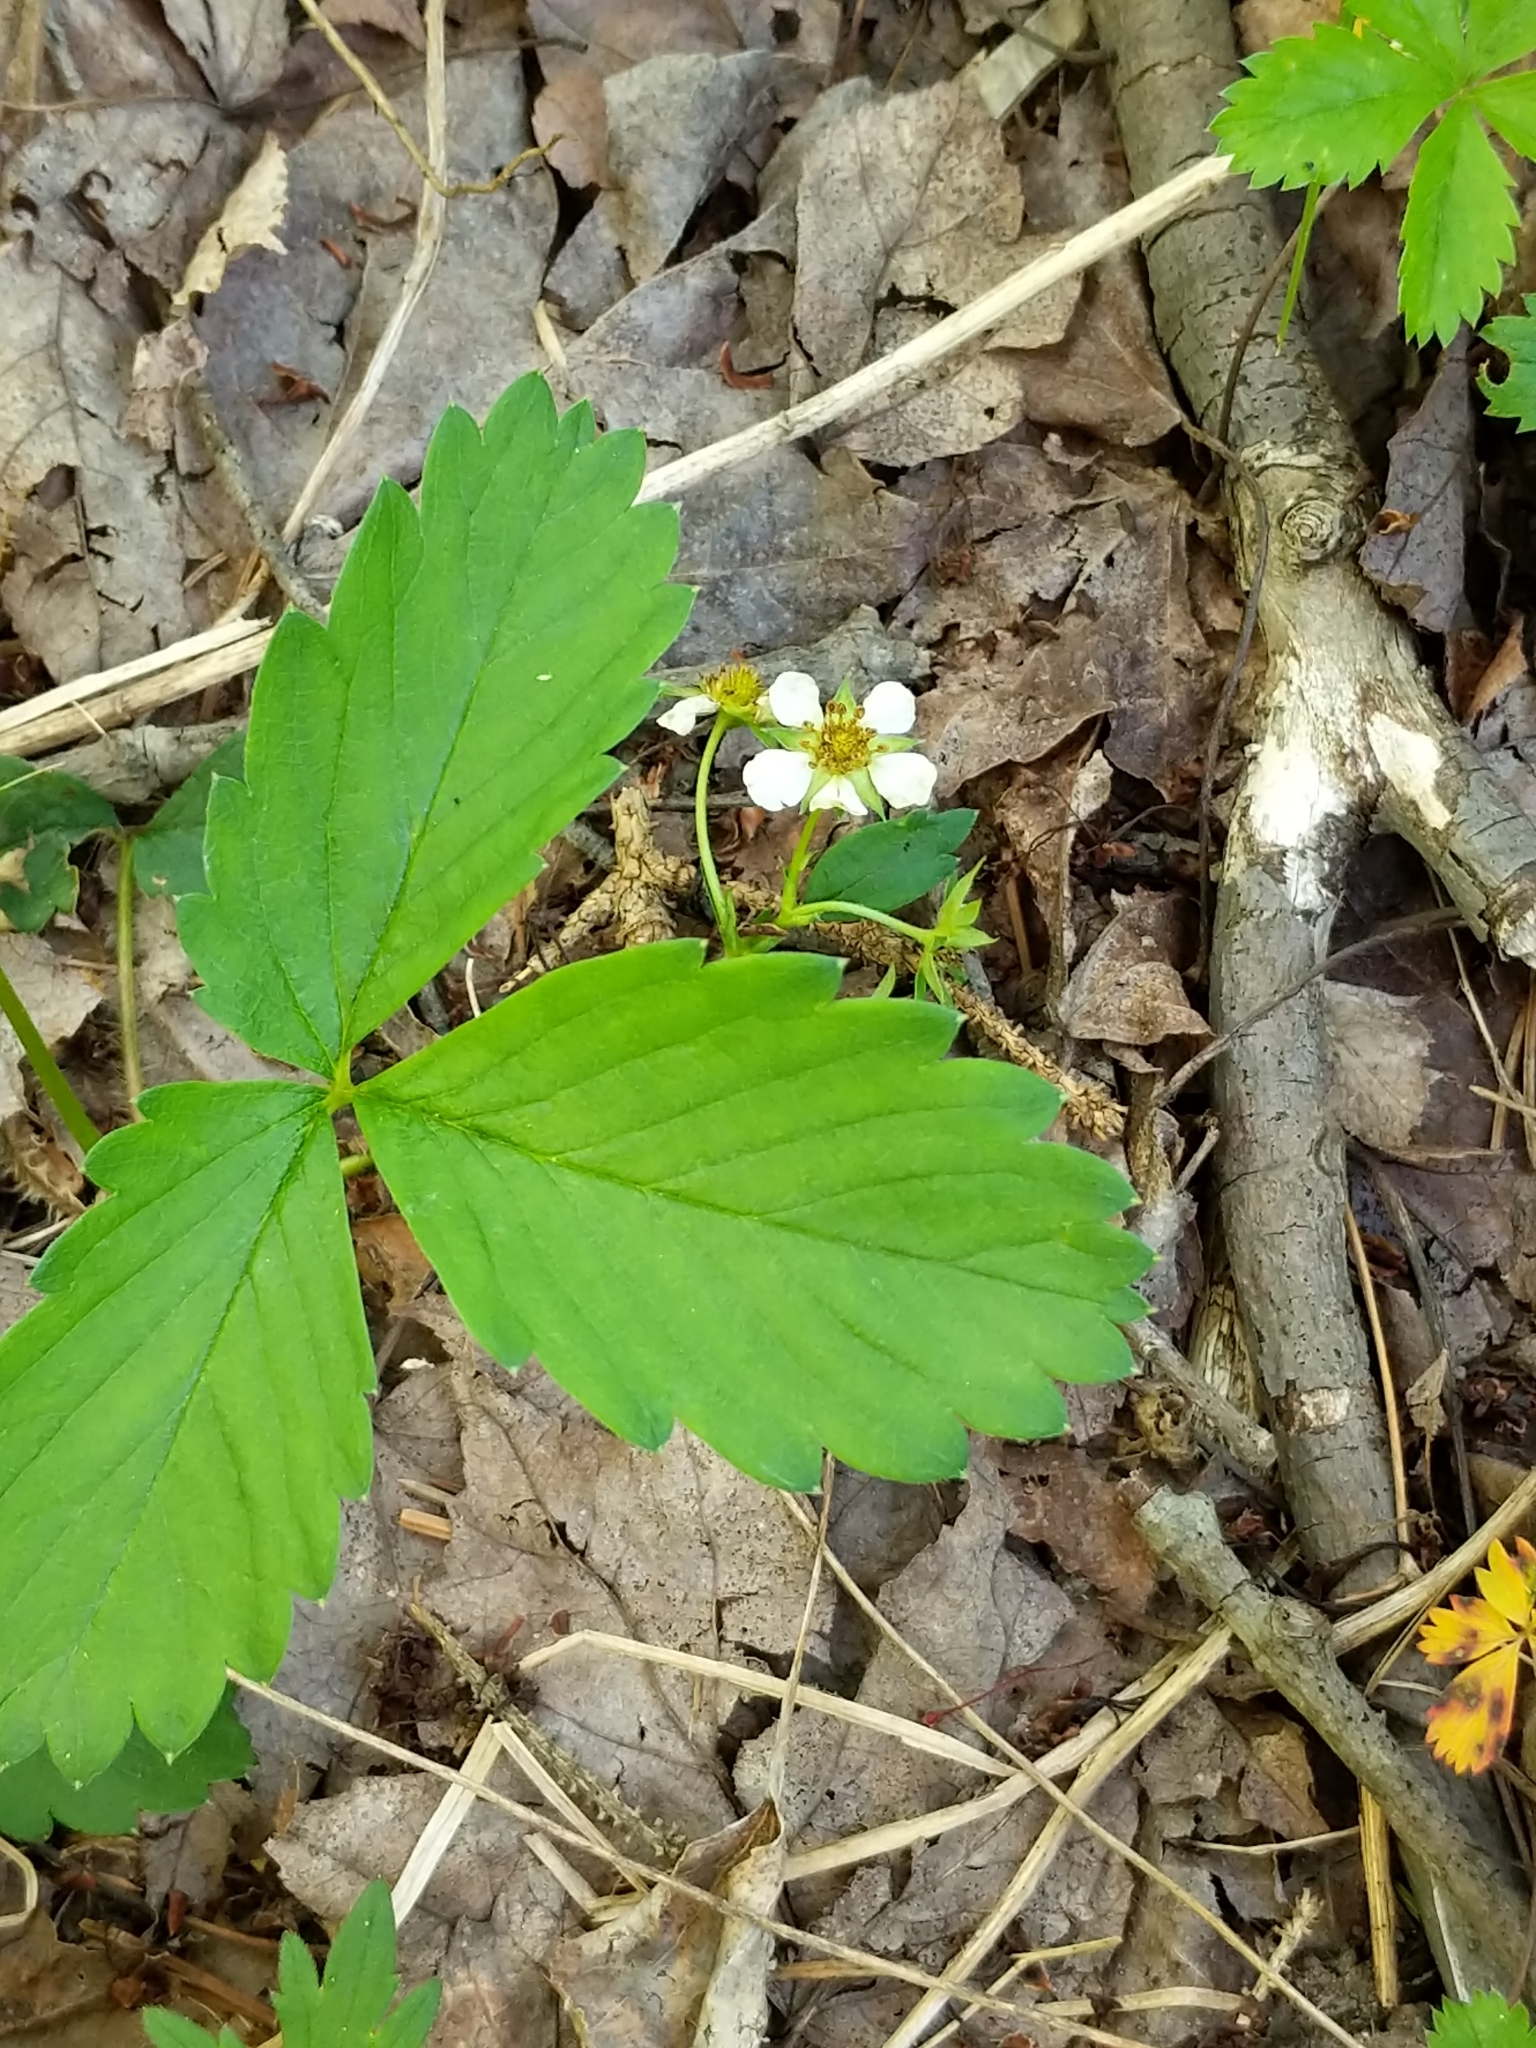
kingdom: Plantae
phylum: Tracheophyta
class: Magnoliopsida
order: Rosales
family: Rosaceae
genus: Fragaria
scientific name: Fragaria virginiana
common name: Thickleaved wild strawberry
